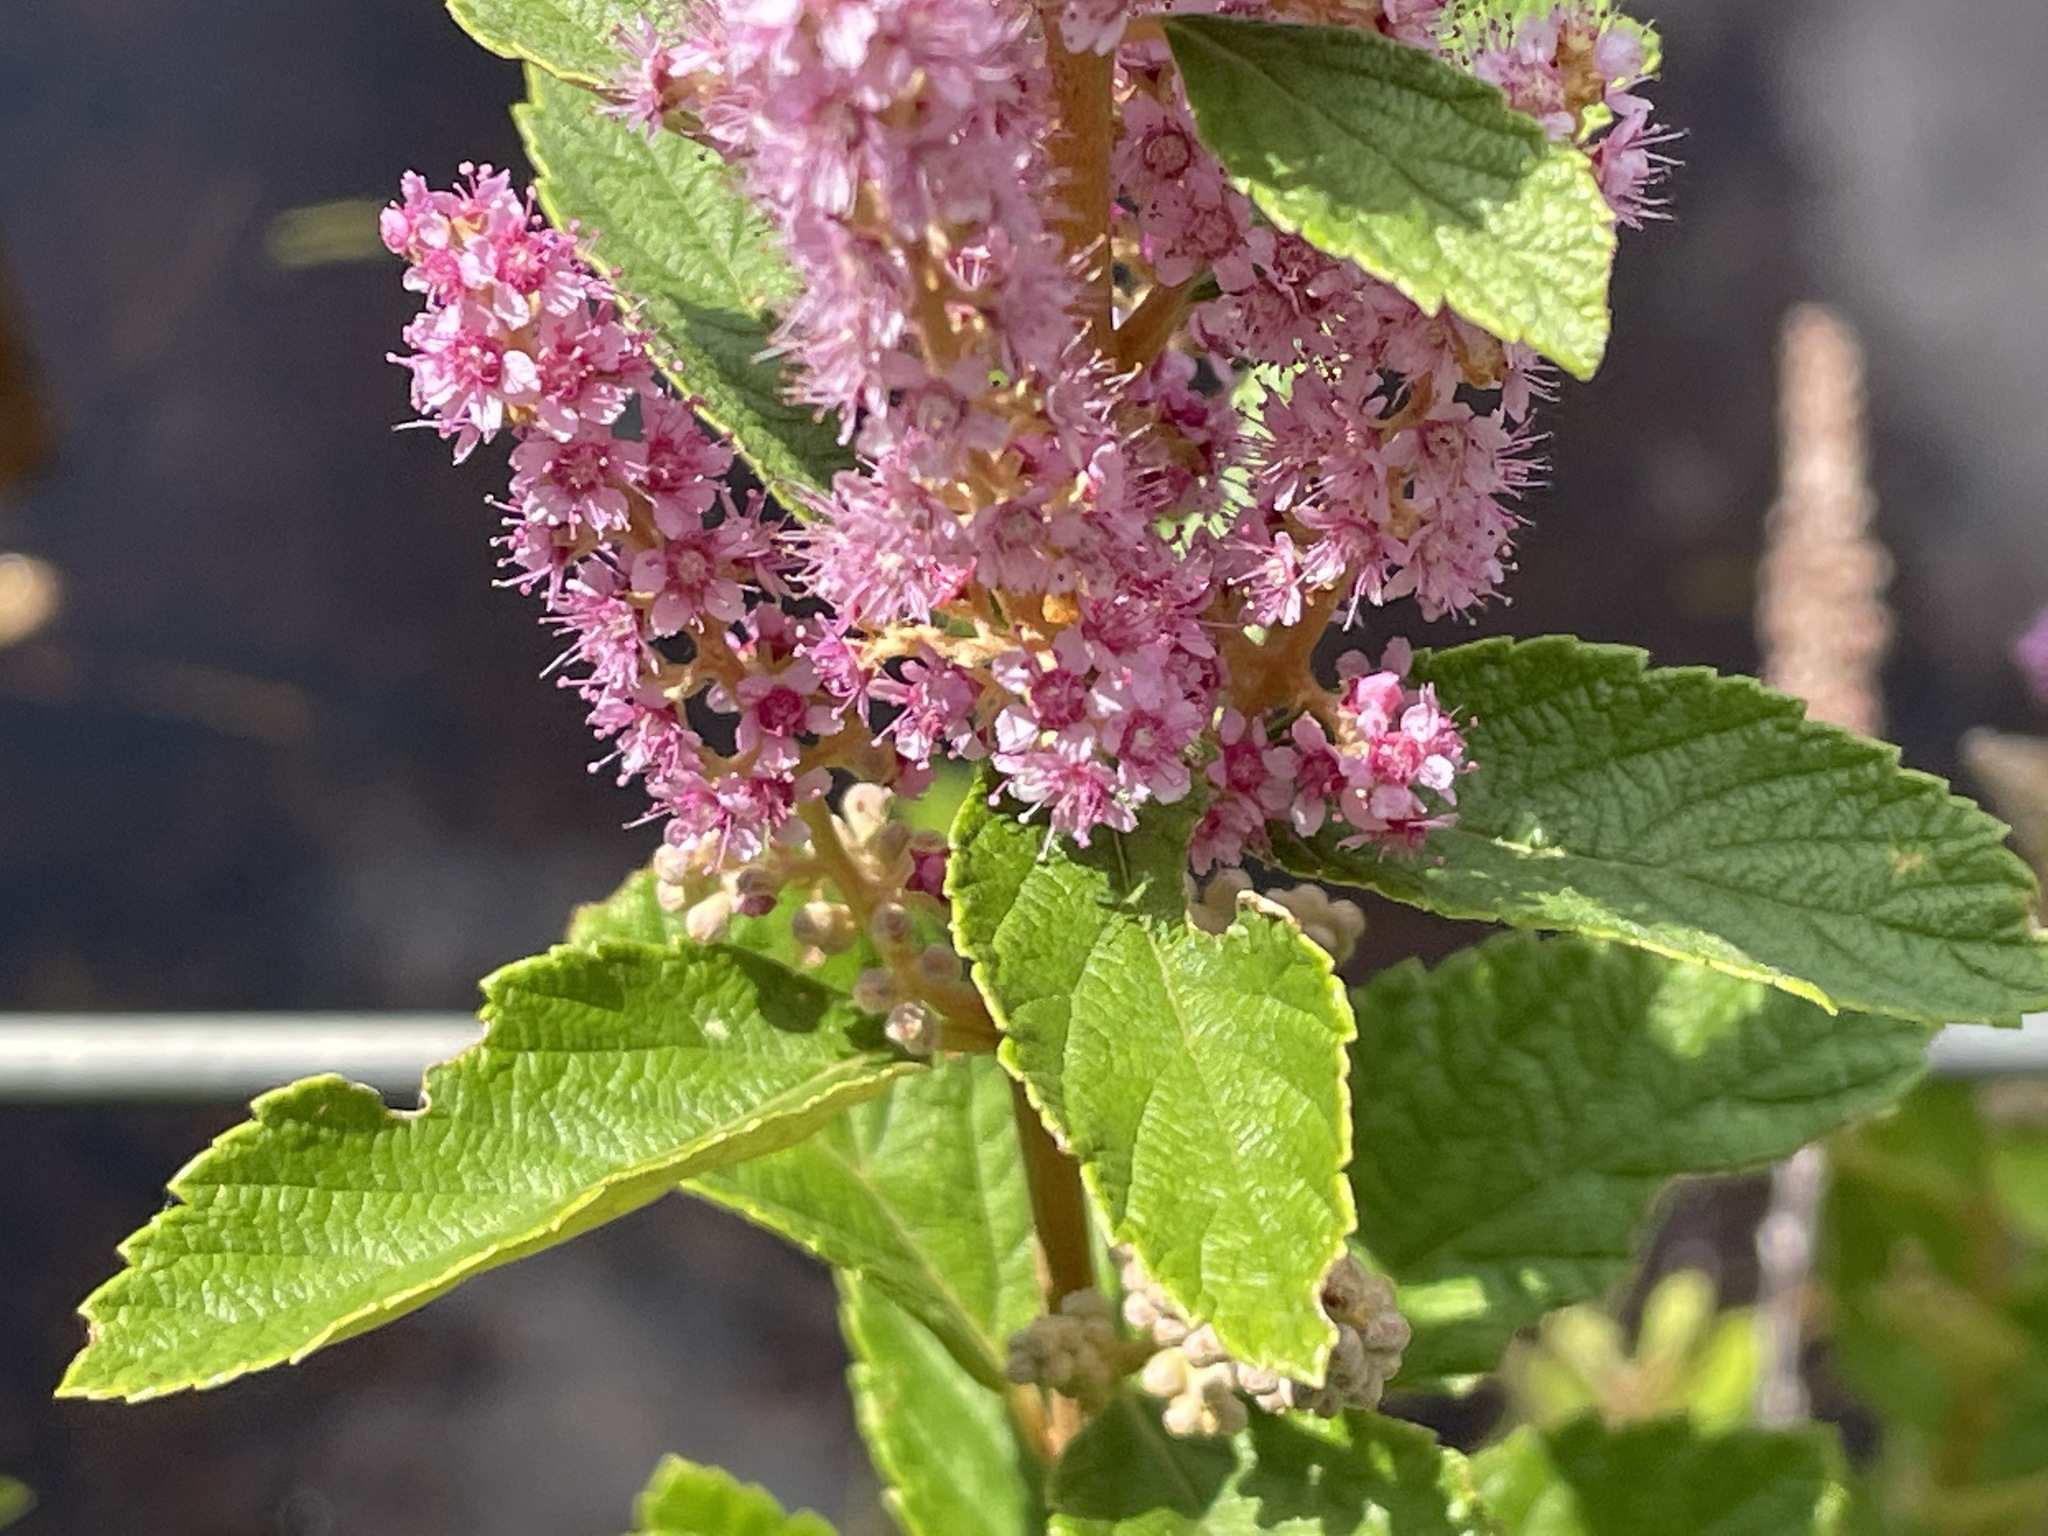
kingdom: Plantae
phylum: Tracheophyta
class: Magnoliopsida
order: Rosales
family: Rosaceae
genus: Spiraea
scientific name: Spiraea tomentosa
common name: Hardhack
